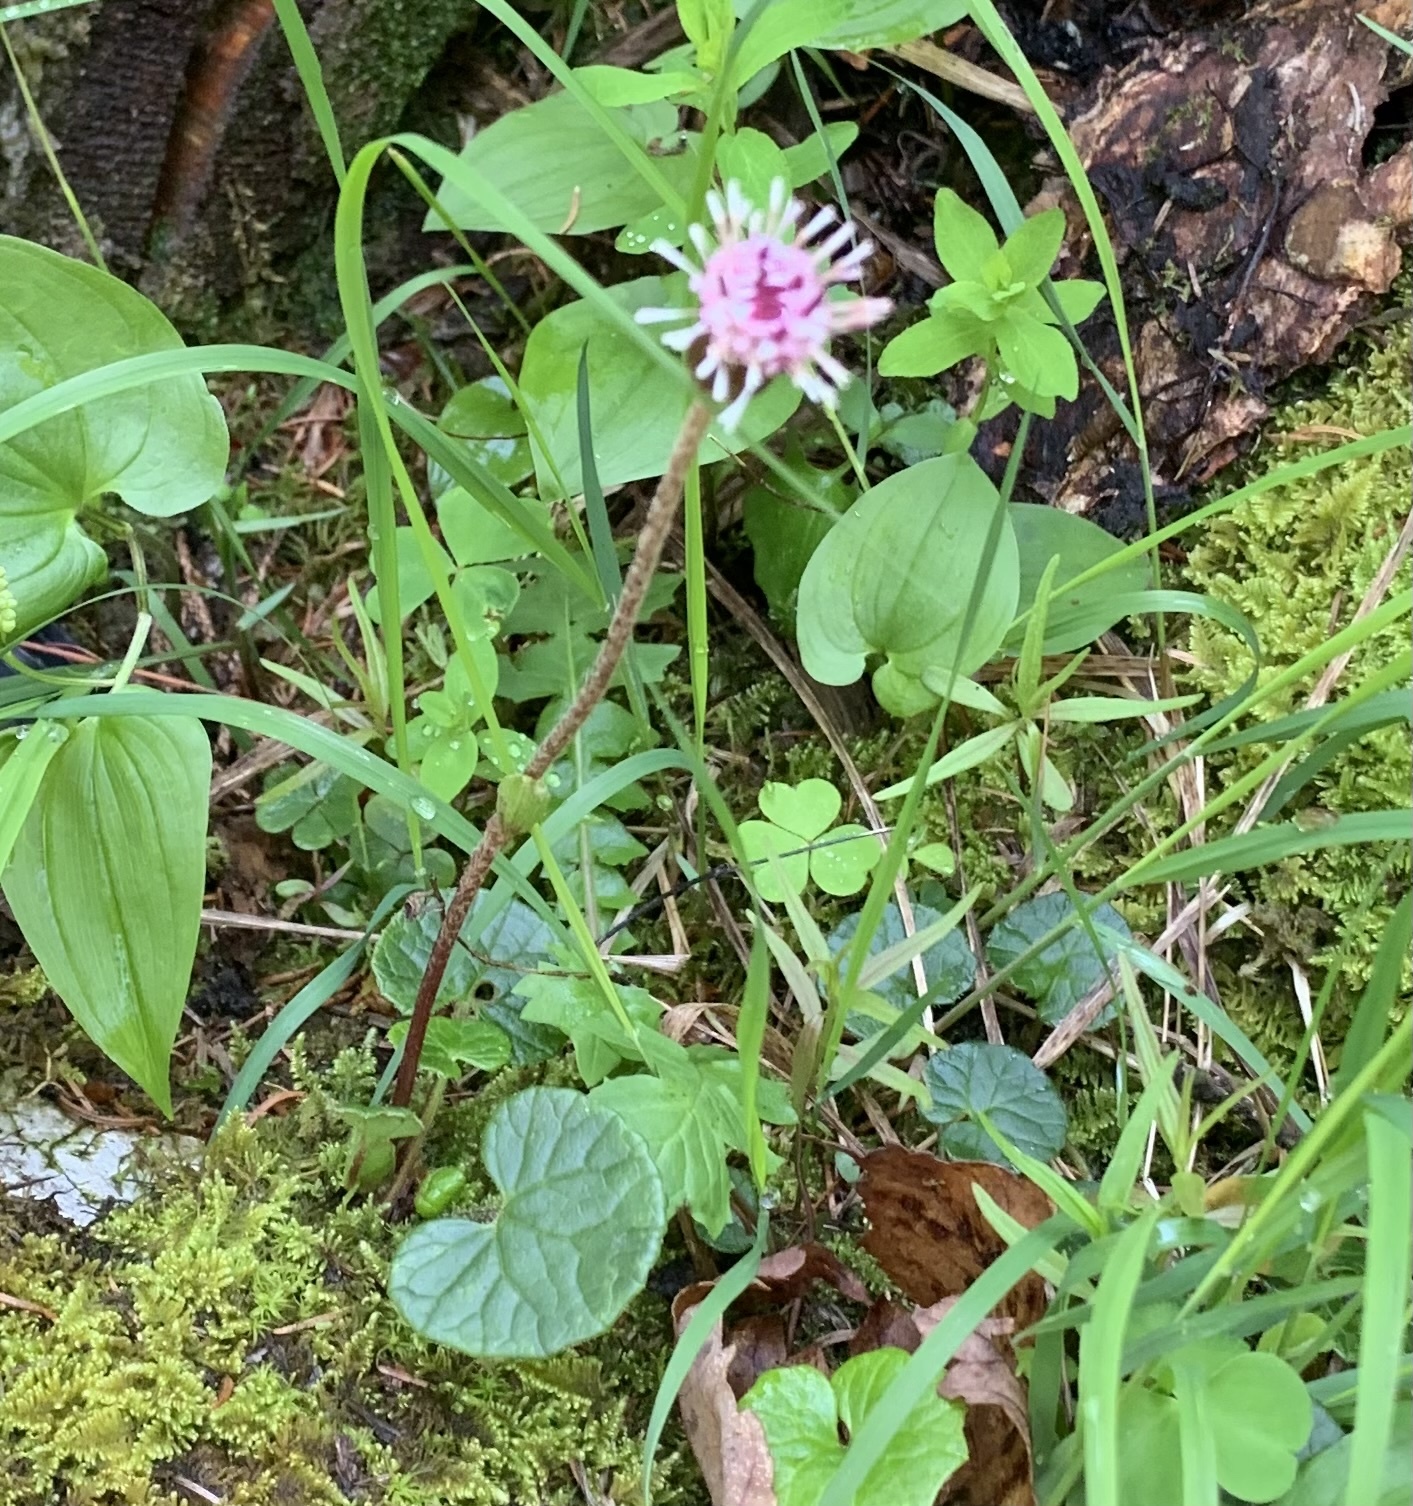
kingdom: Plantae
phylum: Tracheophyta
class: Magnoliopsida
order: Asterales
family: Asteraceae
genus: Homogyne
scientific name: Homogyne alpina
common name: Purple colt's-foot
